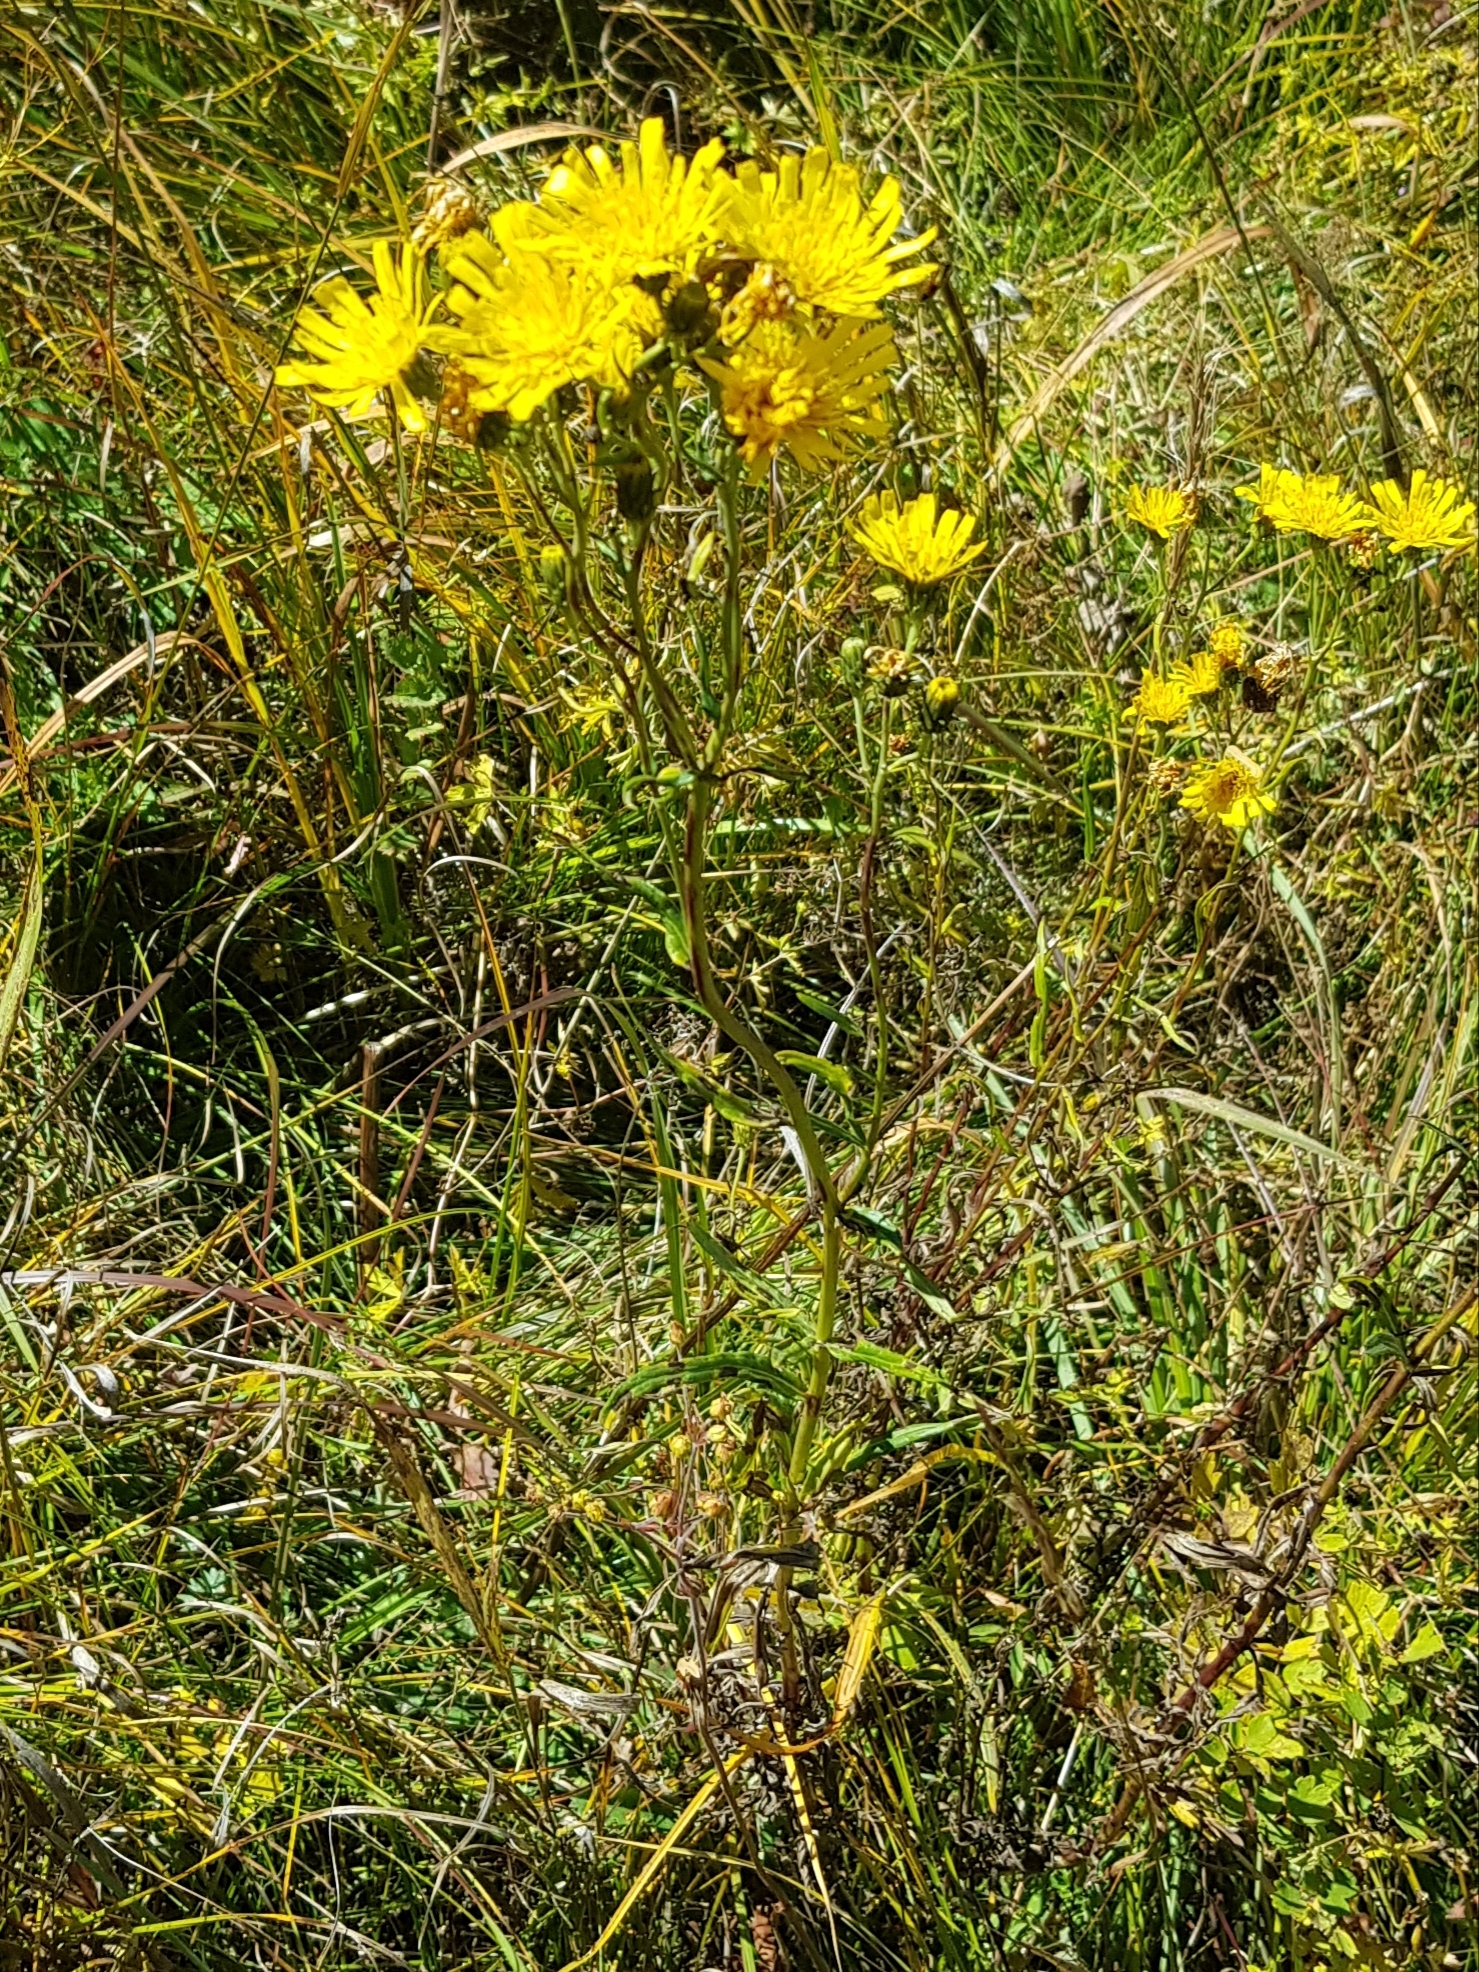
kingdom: Plantae
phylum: Tracheophyta
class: Magnoliopsida
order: Asterales
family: Asteraceae
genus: Hieracium
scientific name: Hieracium umbellatum
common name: Northern hawkweed
